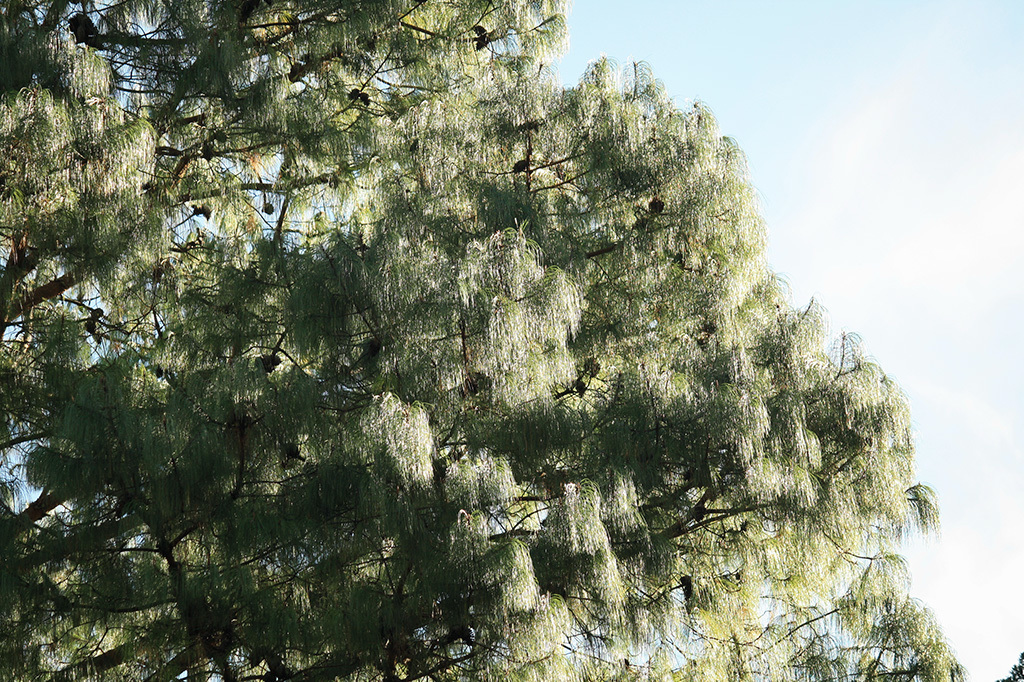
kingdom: Plantae
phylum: Tracheophyta
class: Pinopsida
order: Pinales
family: Pinaceae
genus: Pinus
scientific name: Pinus patula
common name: Mexican weeping pine
